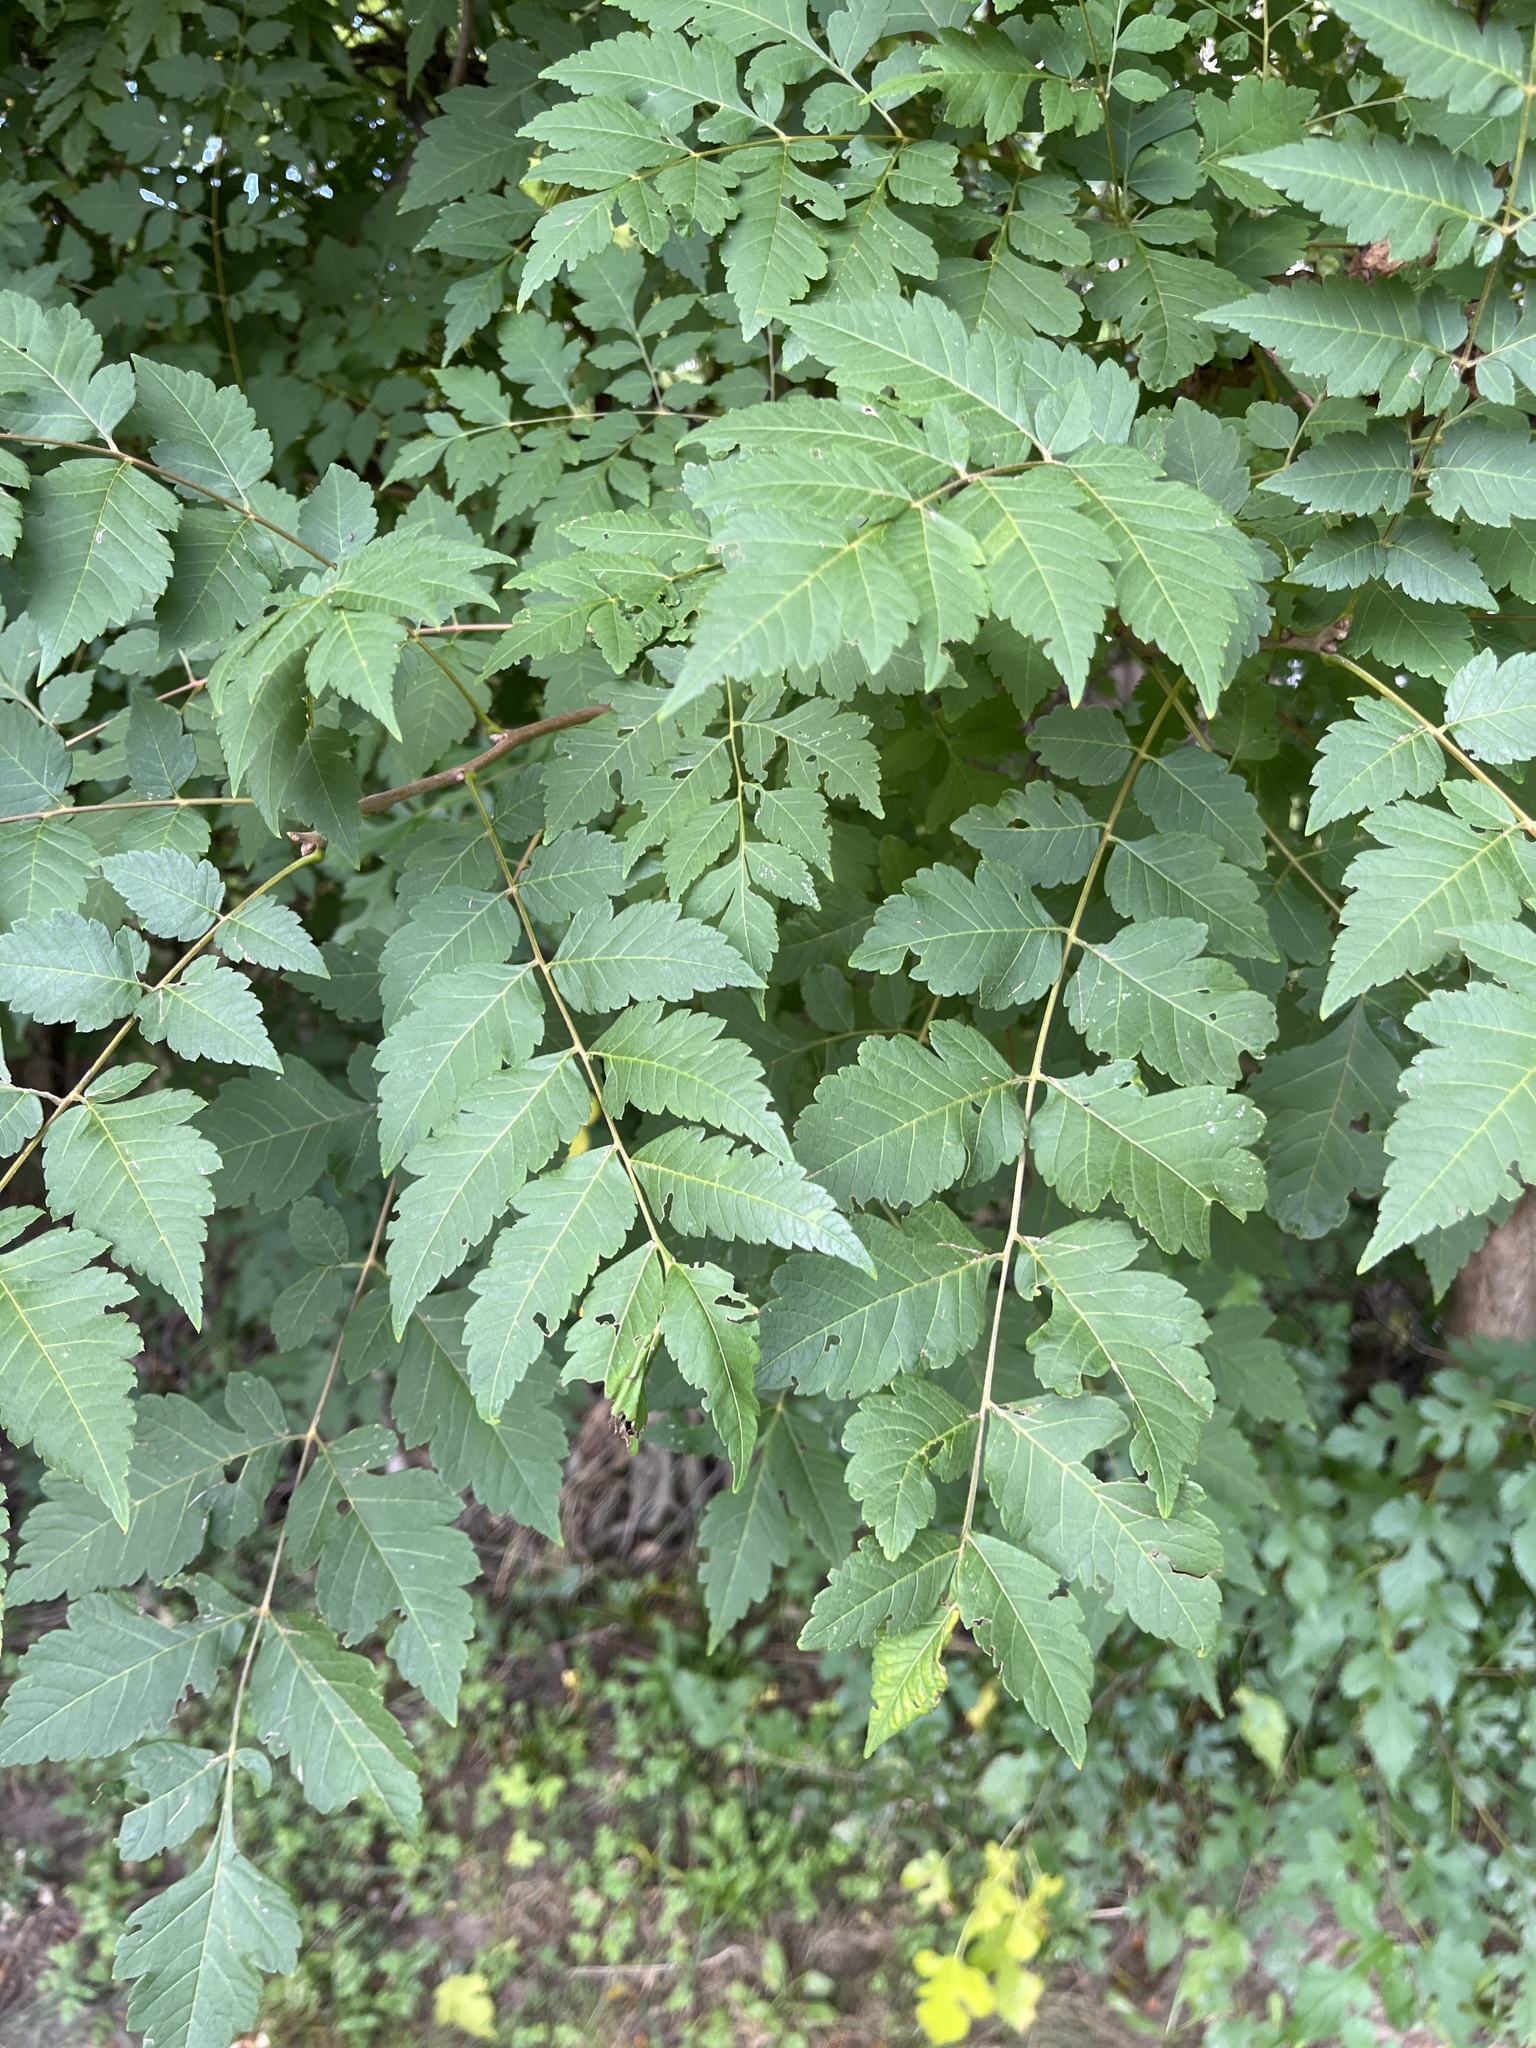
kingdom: Plantae
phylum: Tracheophyta
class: Magnoliopsida
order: Sapindales
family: Sapindaceae
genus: Koelreuteria
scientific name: Koelreuteria paniculata
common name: Pride-of-india
